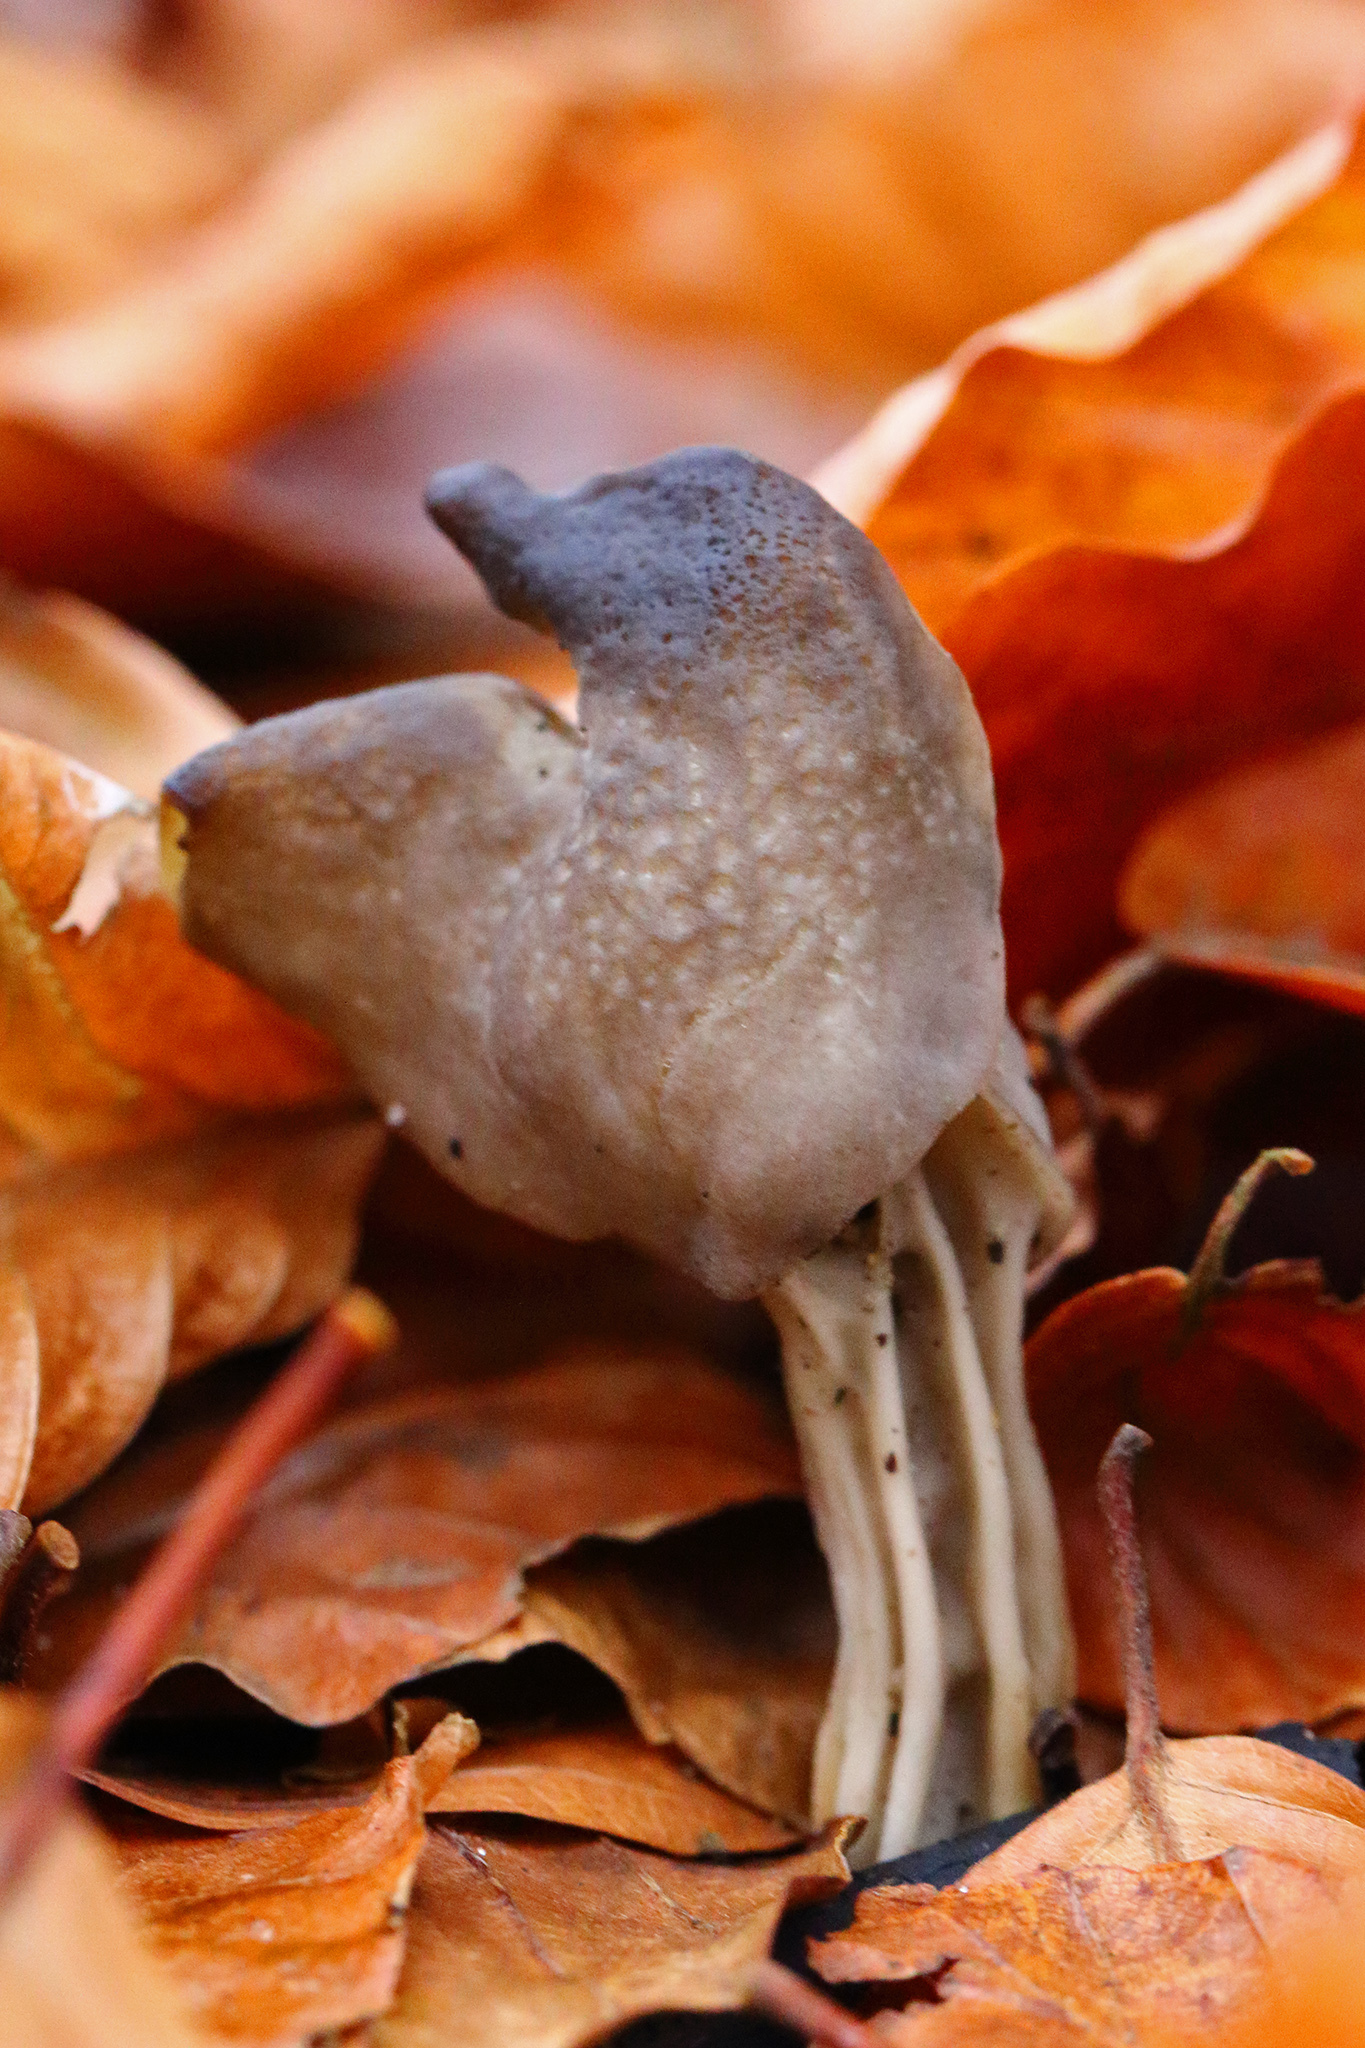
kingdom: Fungi
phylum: Ascomycota
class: Pezizomycetes
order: Pezizales
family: Helvellaceae
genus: Helvella
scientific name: Helvella lacunosa
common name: Elfin saddle
